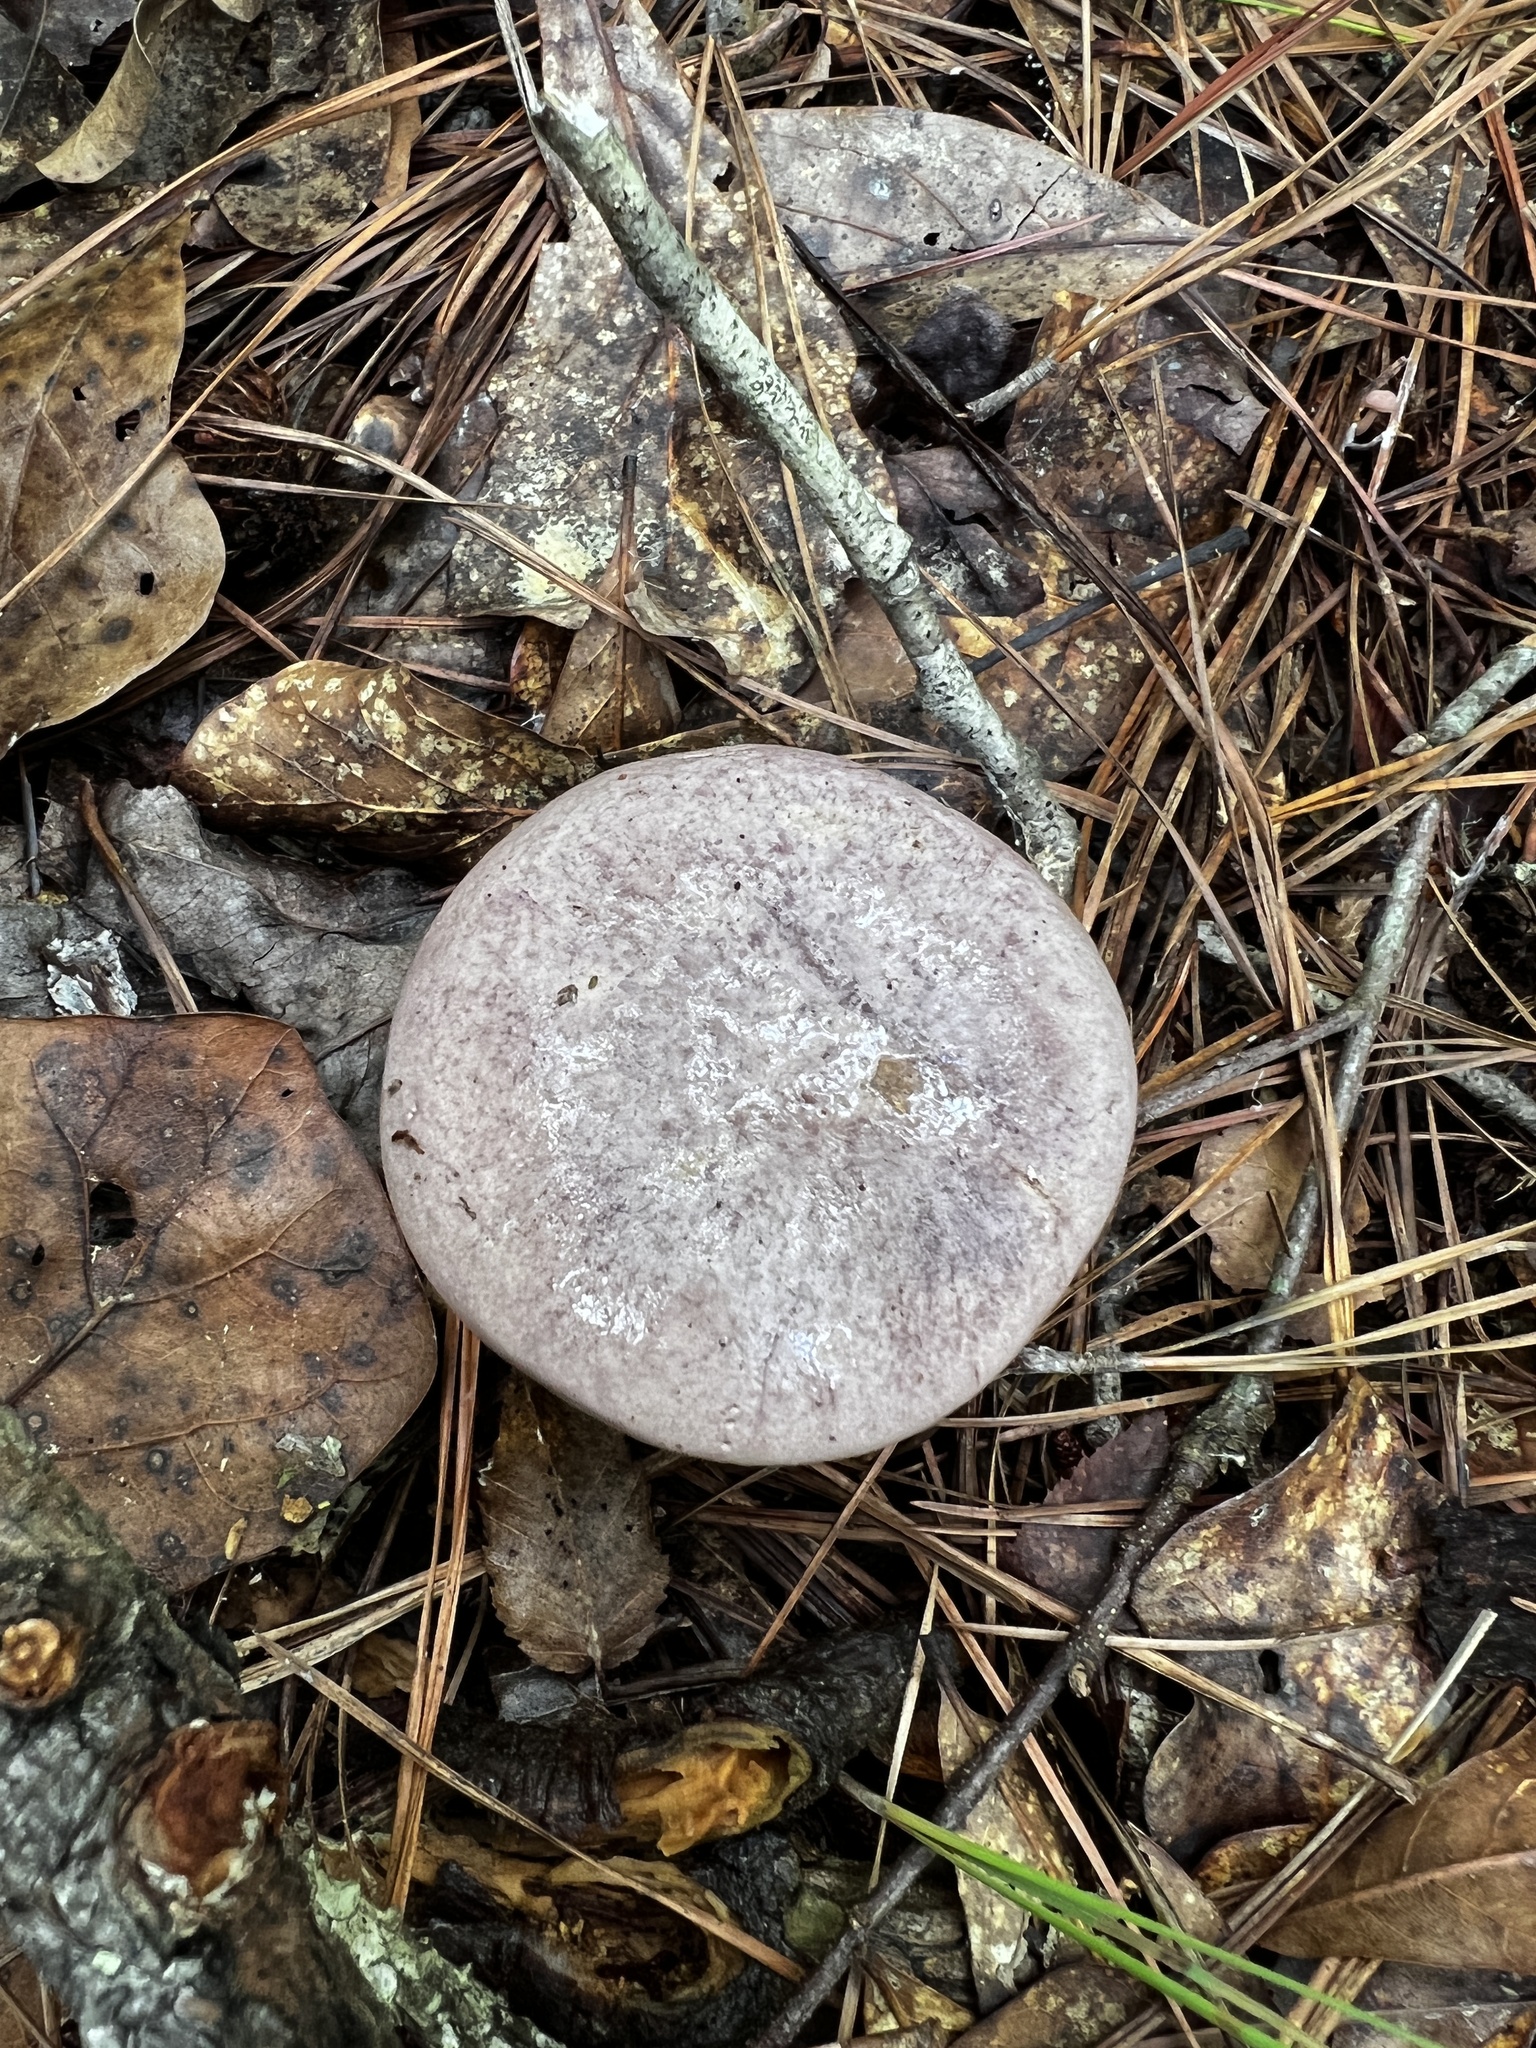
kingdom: Fungi
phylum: Basidiomycota
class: Agaricomycetes
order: Boletales
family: Boletaceae
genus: Tylopilus
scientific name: Tylopilus plumbeoviolaceus
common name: Violet gray bolete
